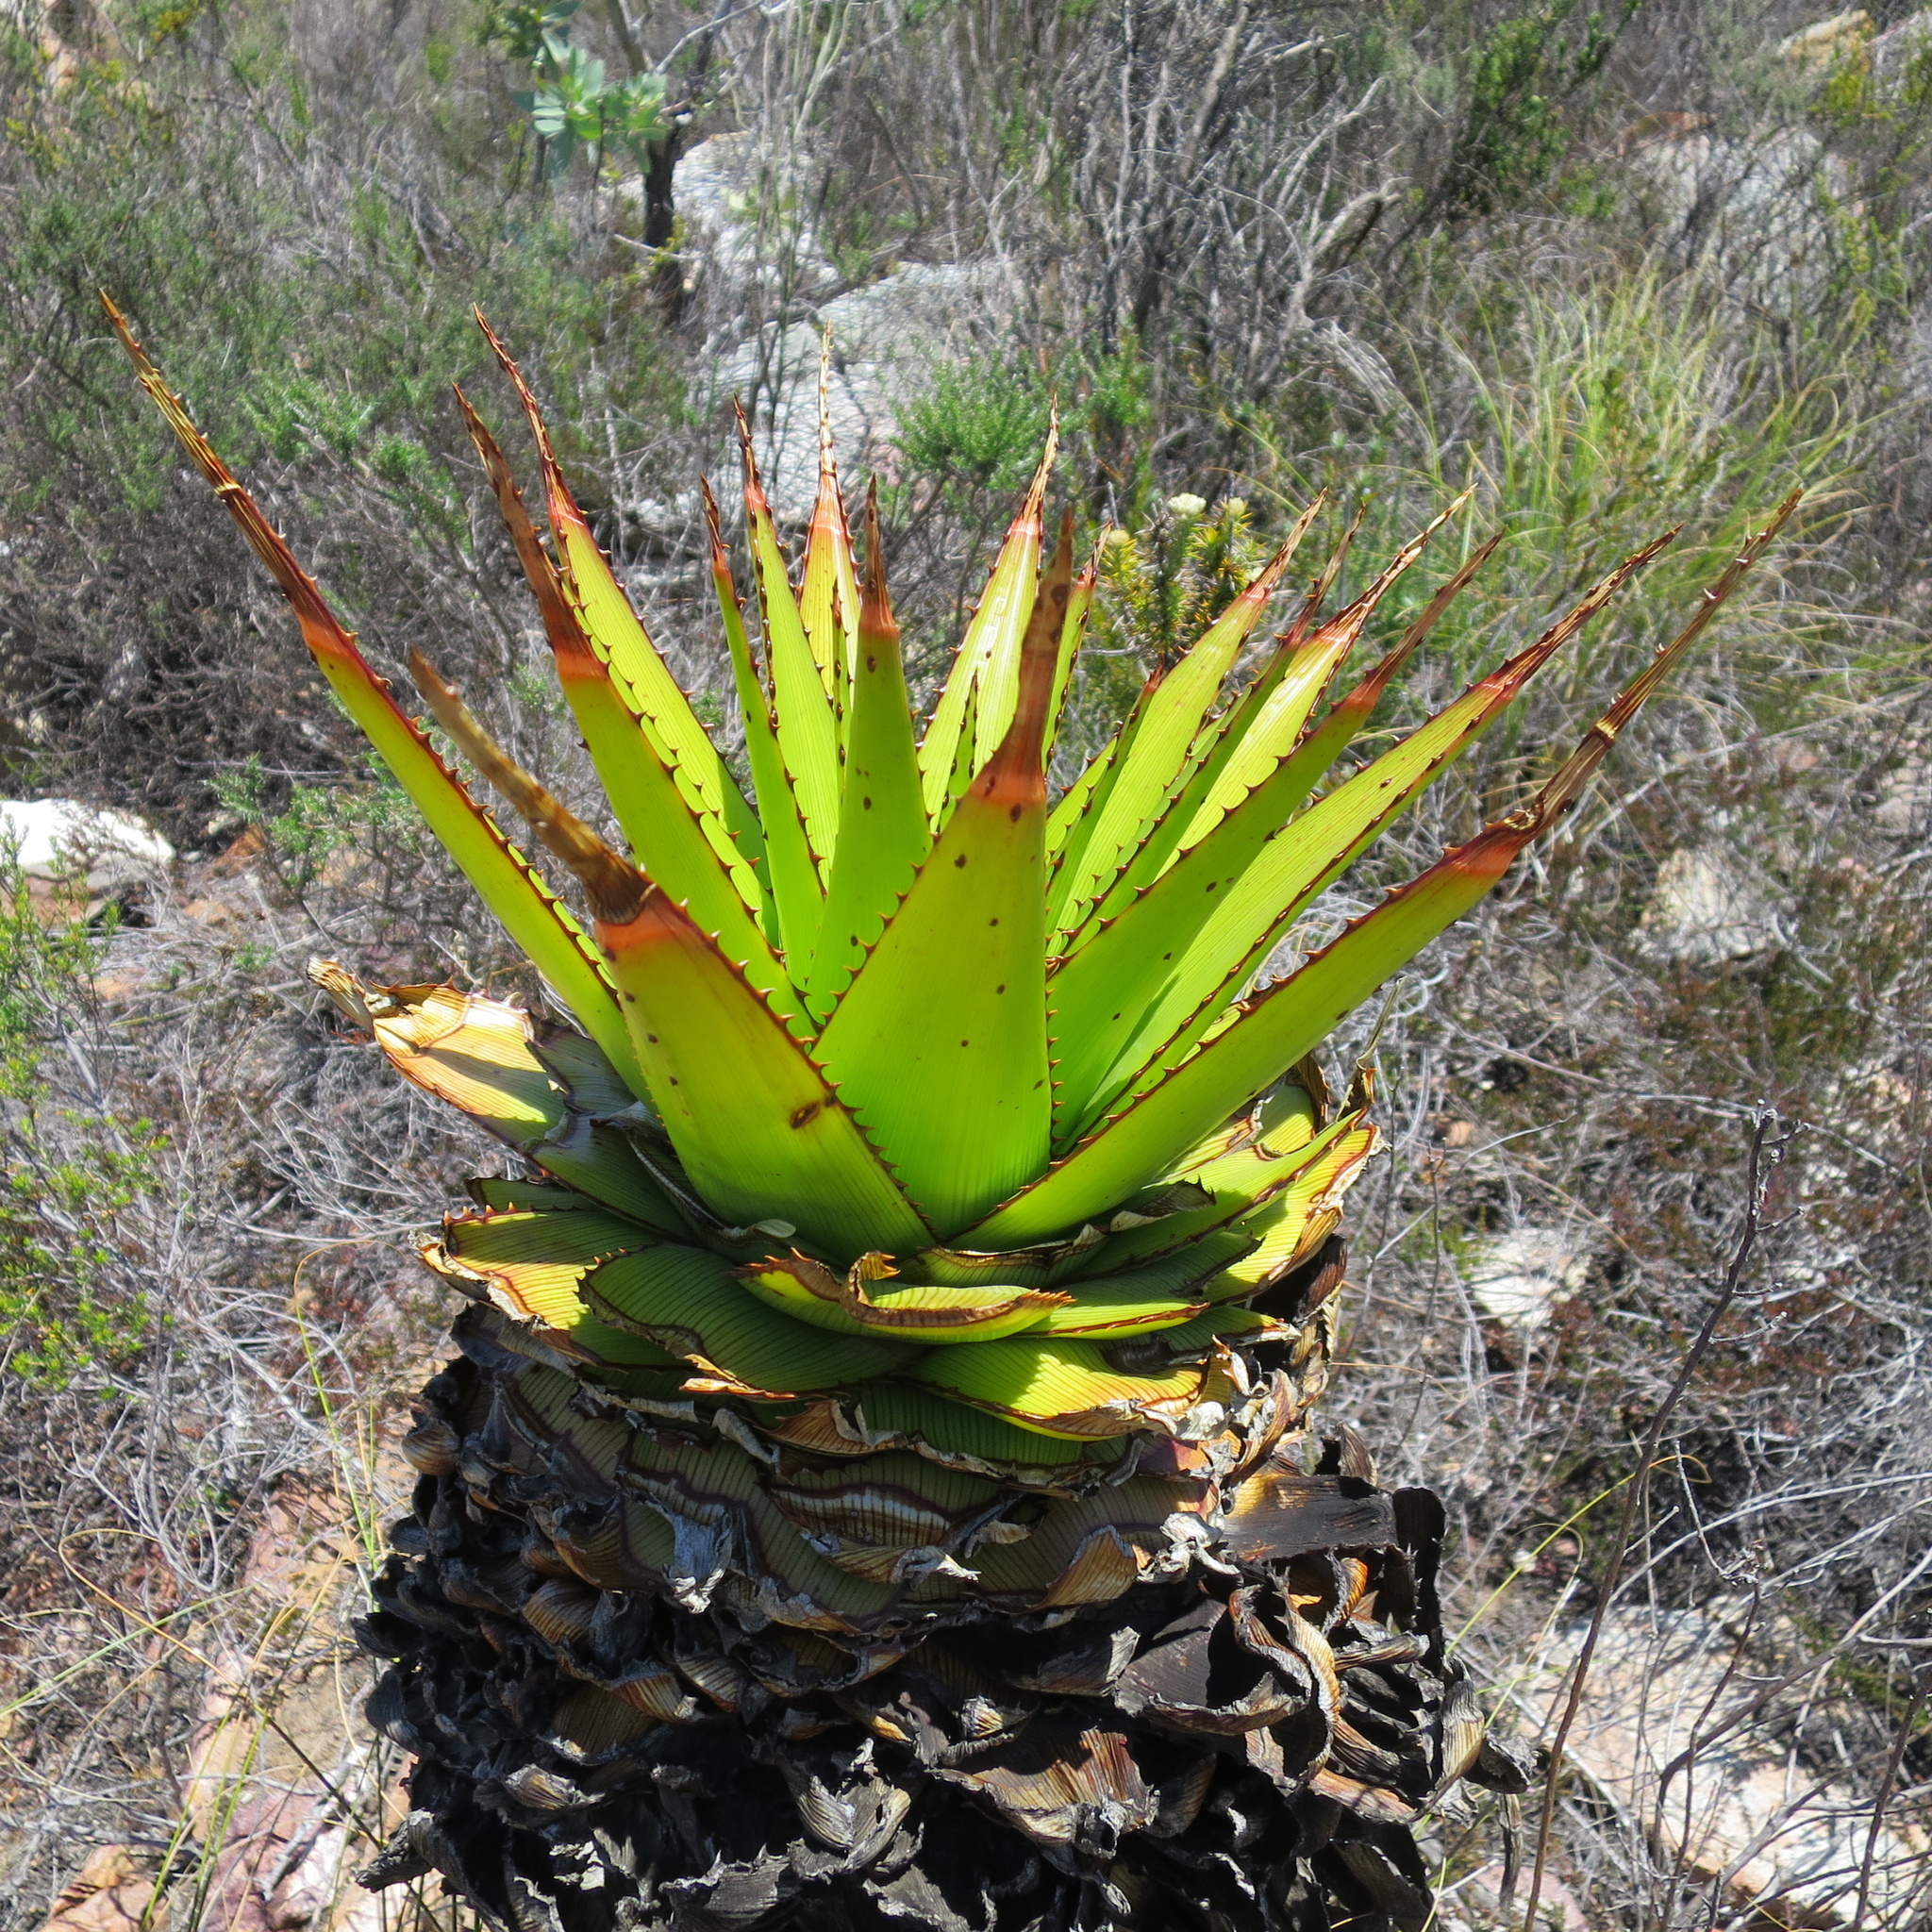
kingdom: Plantae
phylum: Tracheophyta
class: Liliopsida
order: Asparagales
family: Asphodelaceae
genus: Aloe
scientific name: Aloe lineata
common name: Lined red-spined aloe
